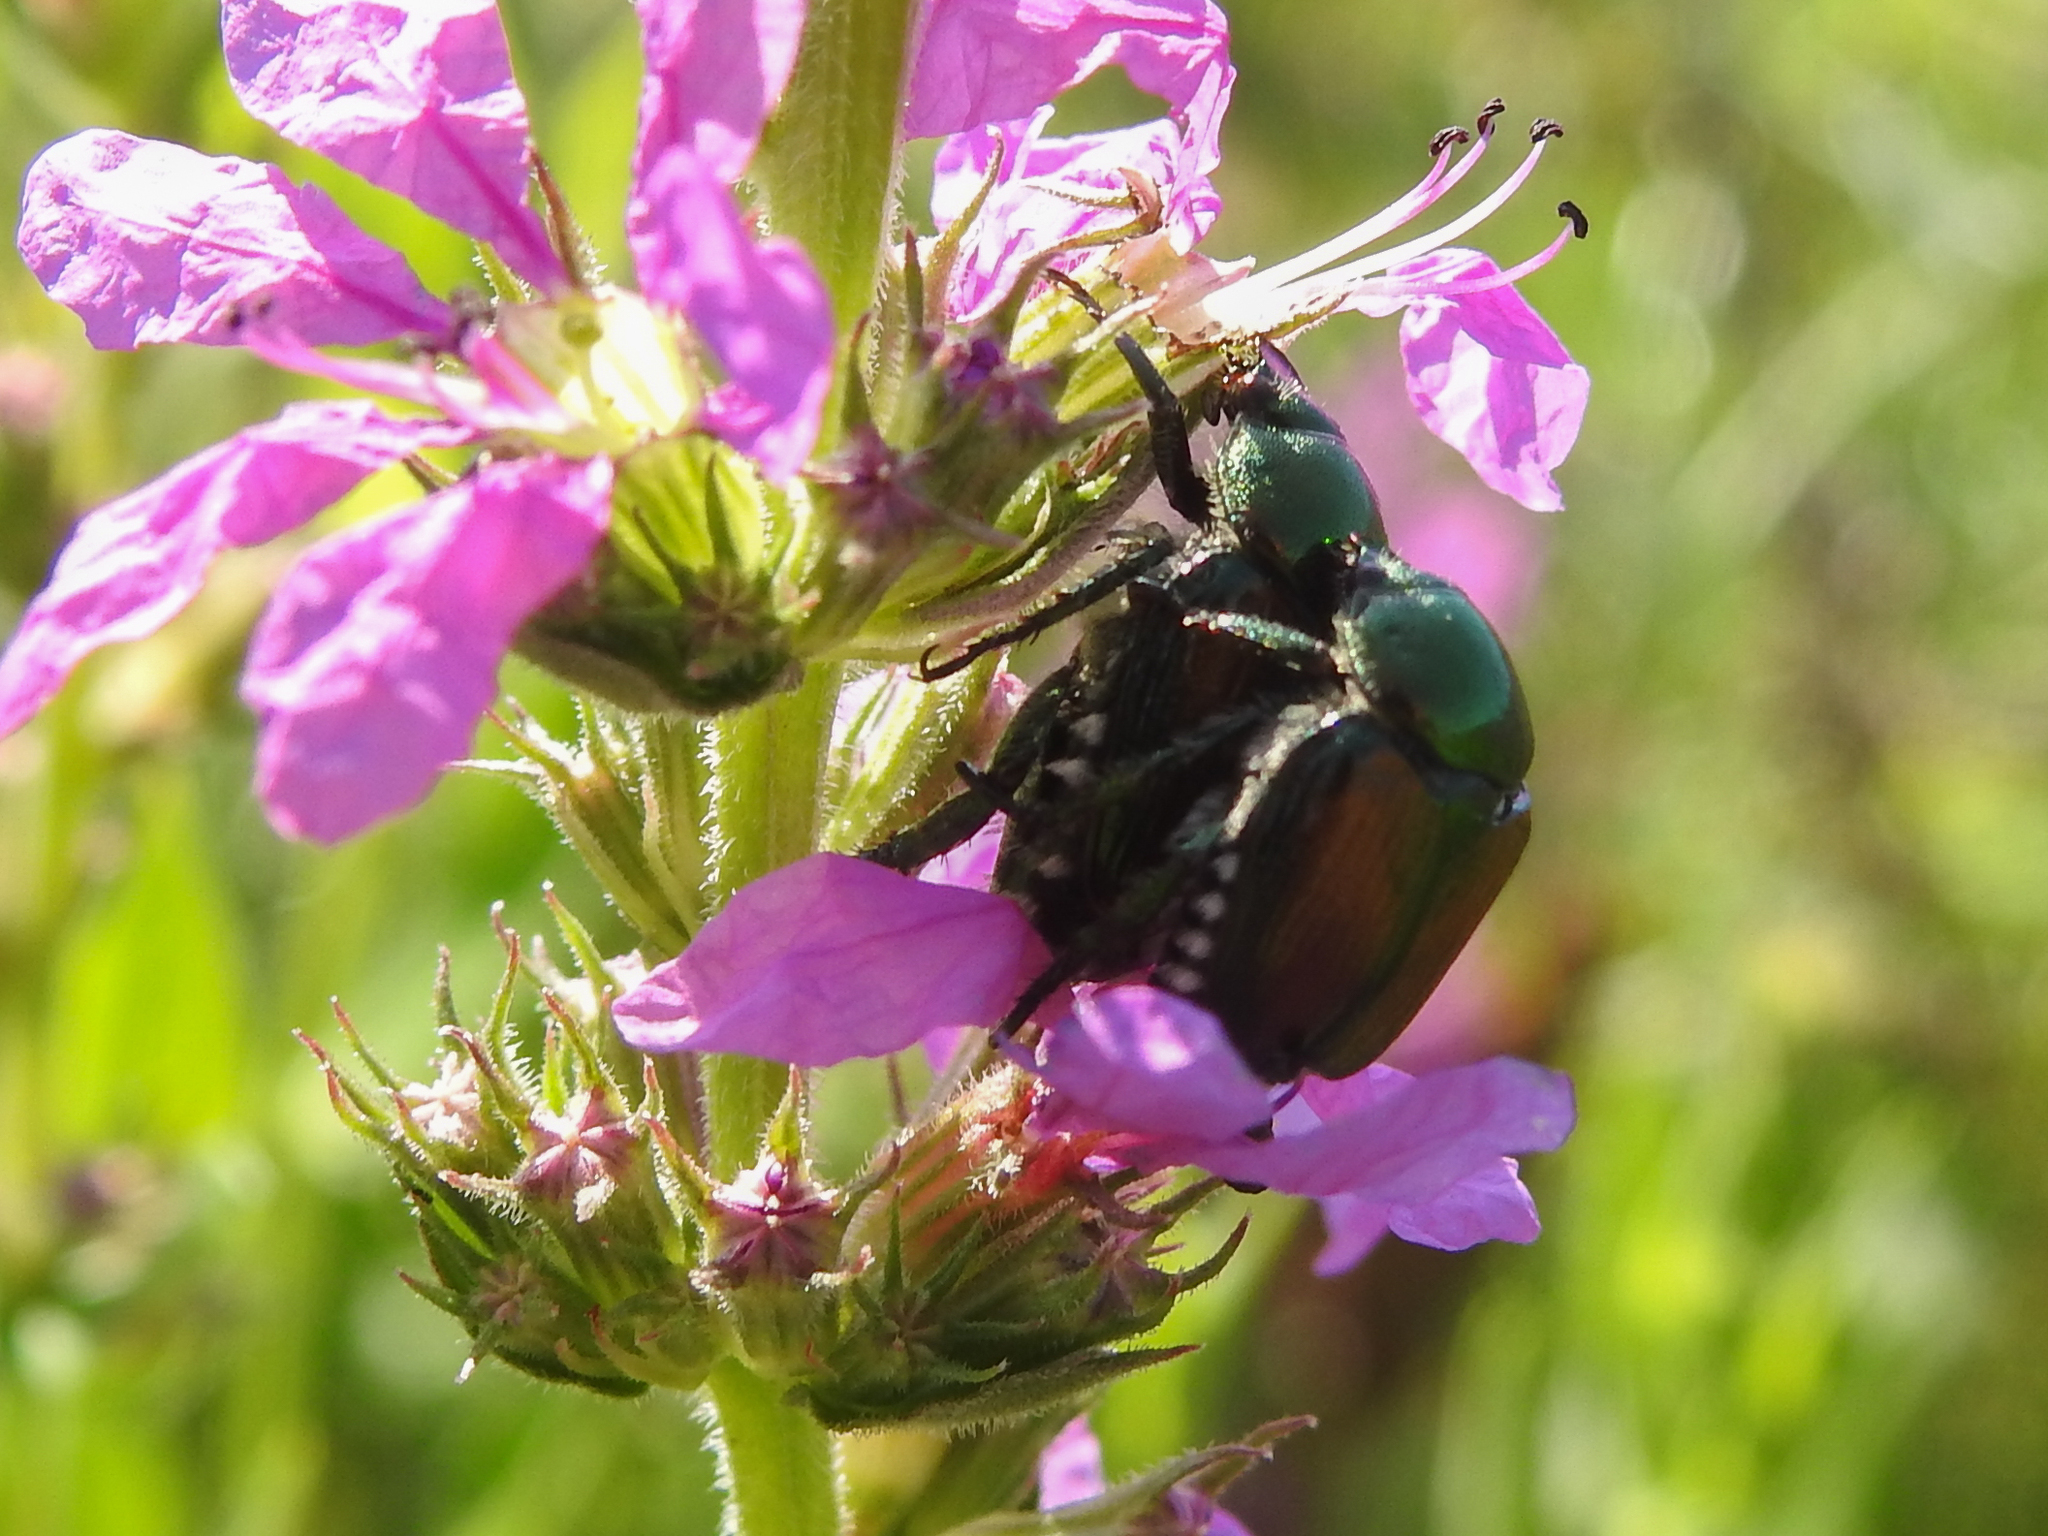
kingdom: Animalia
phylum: Arthropoda
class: Insecta
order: Coleoptera
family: Scarabaeidae
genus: Popillia
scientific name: Popillia japonica
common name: Japanese beetle
